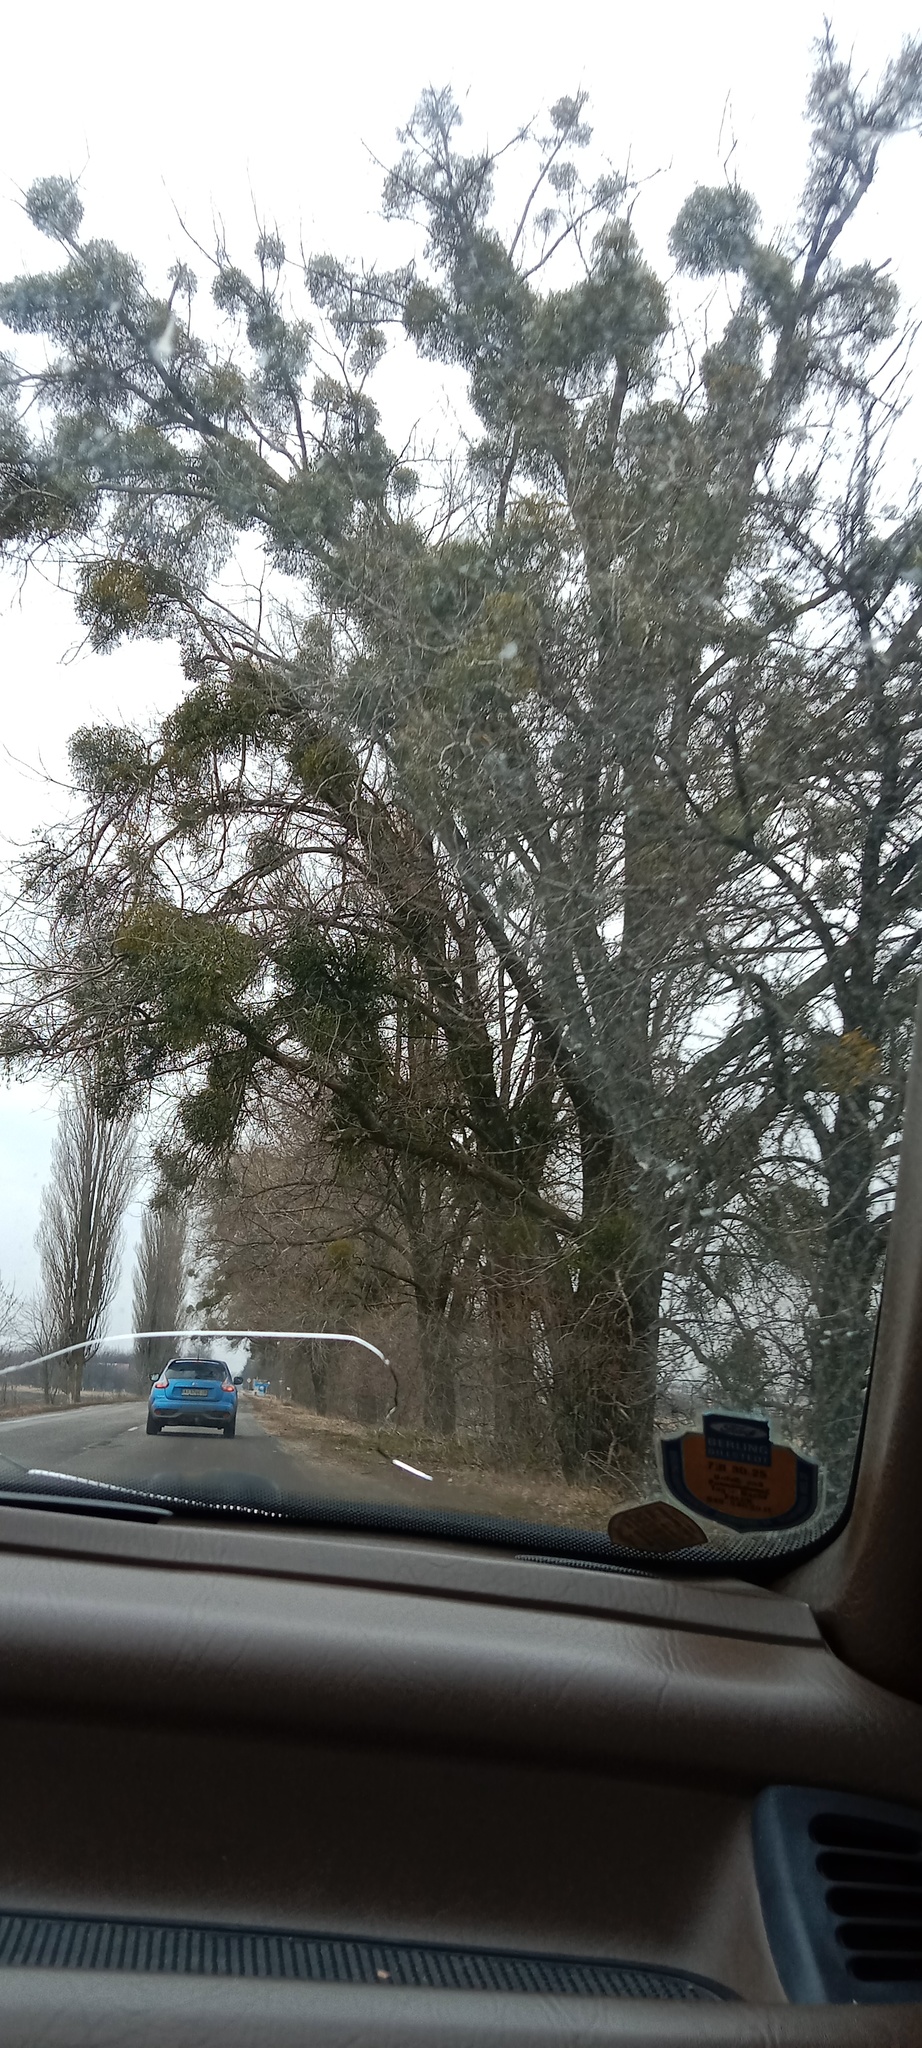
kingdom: Plantae
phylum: Tracheophyta
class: Magnoliopsida
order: Santalales
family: Viscaceae
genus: Viscum
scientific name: Viscum album
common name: Mistletoe
